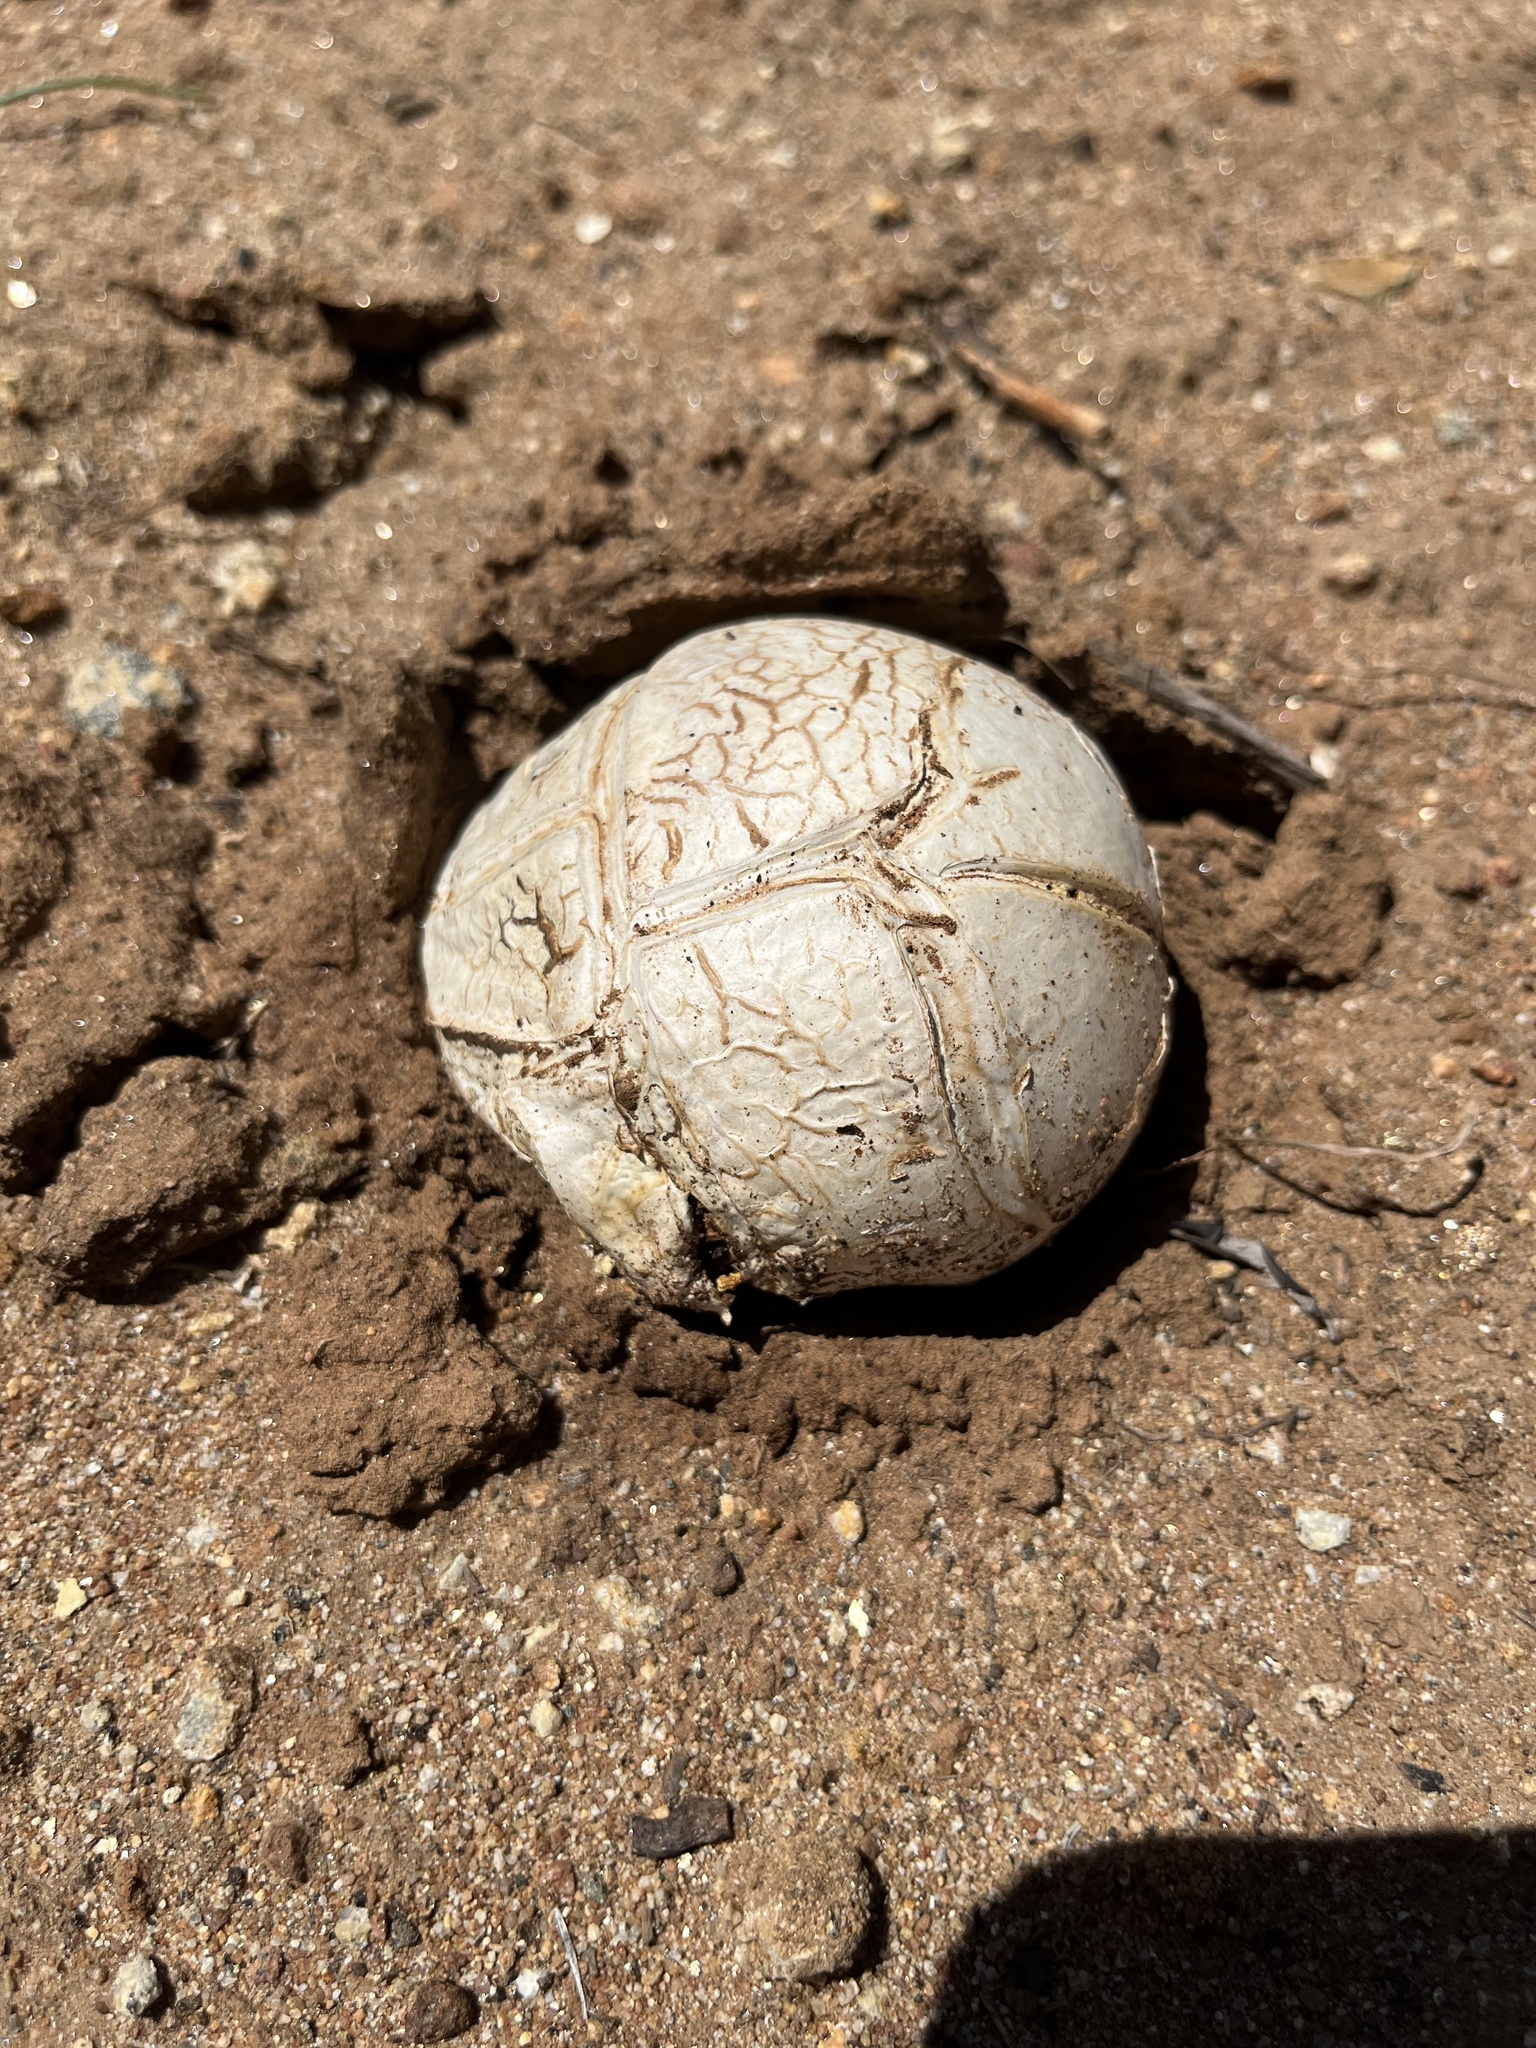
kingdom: Fungi
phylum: Basidiomycota
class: Agaricomycetes
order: Agaricales
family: Lycoperdaceae
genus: Calvatia
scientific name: Calvatia booniana
